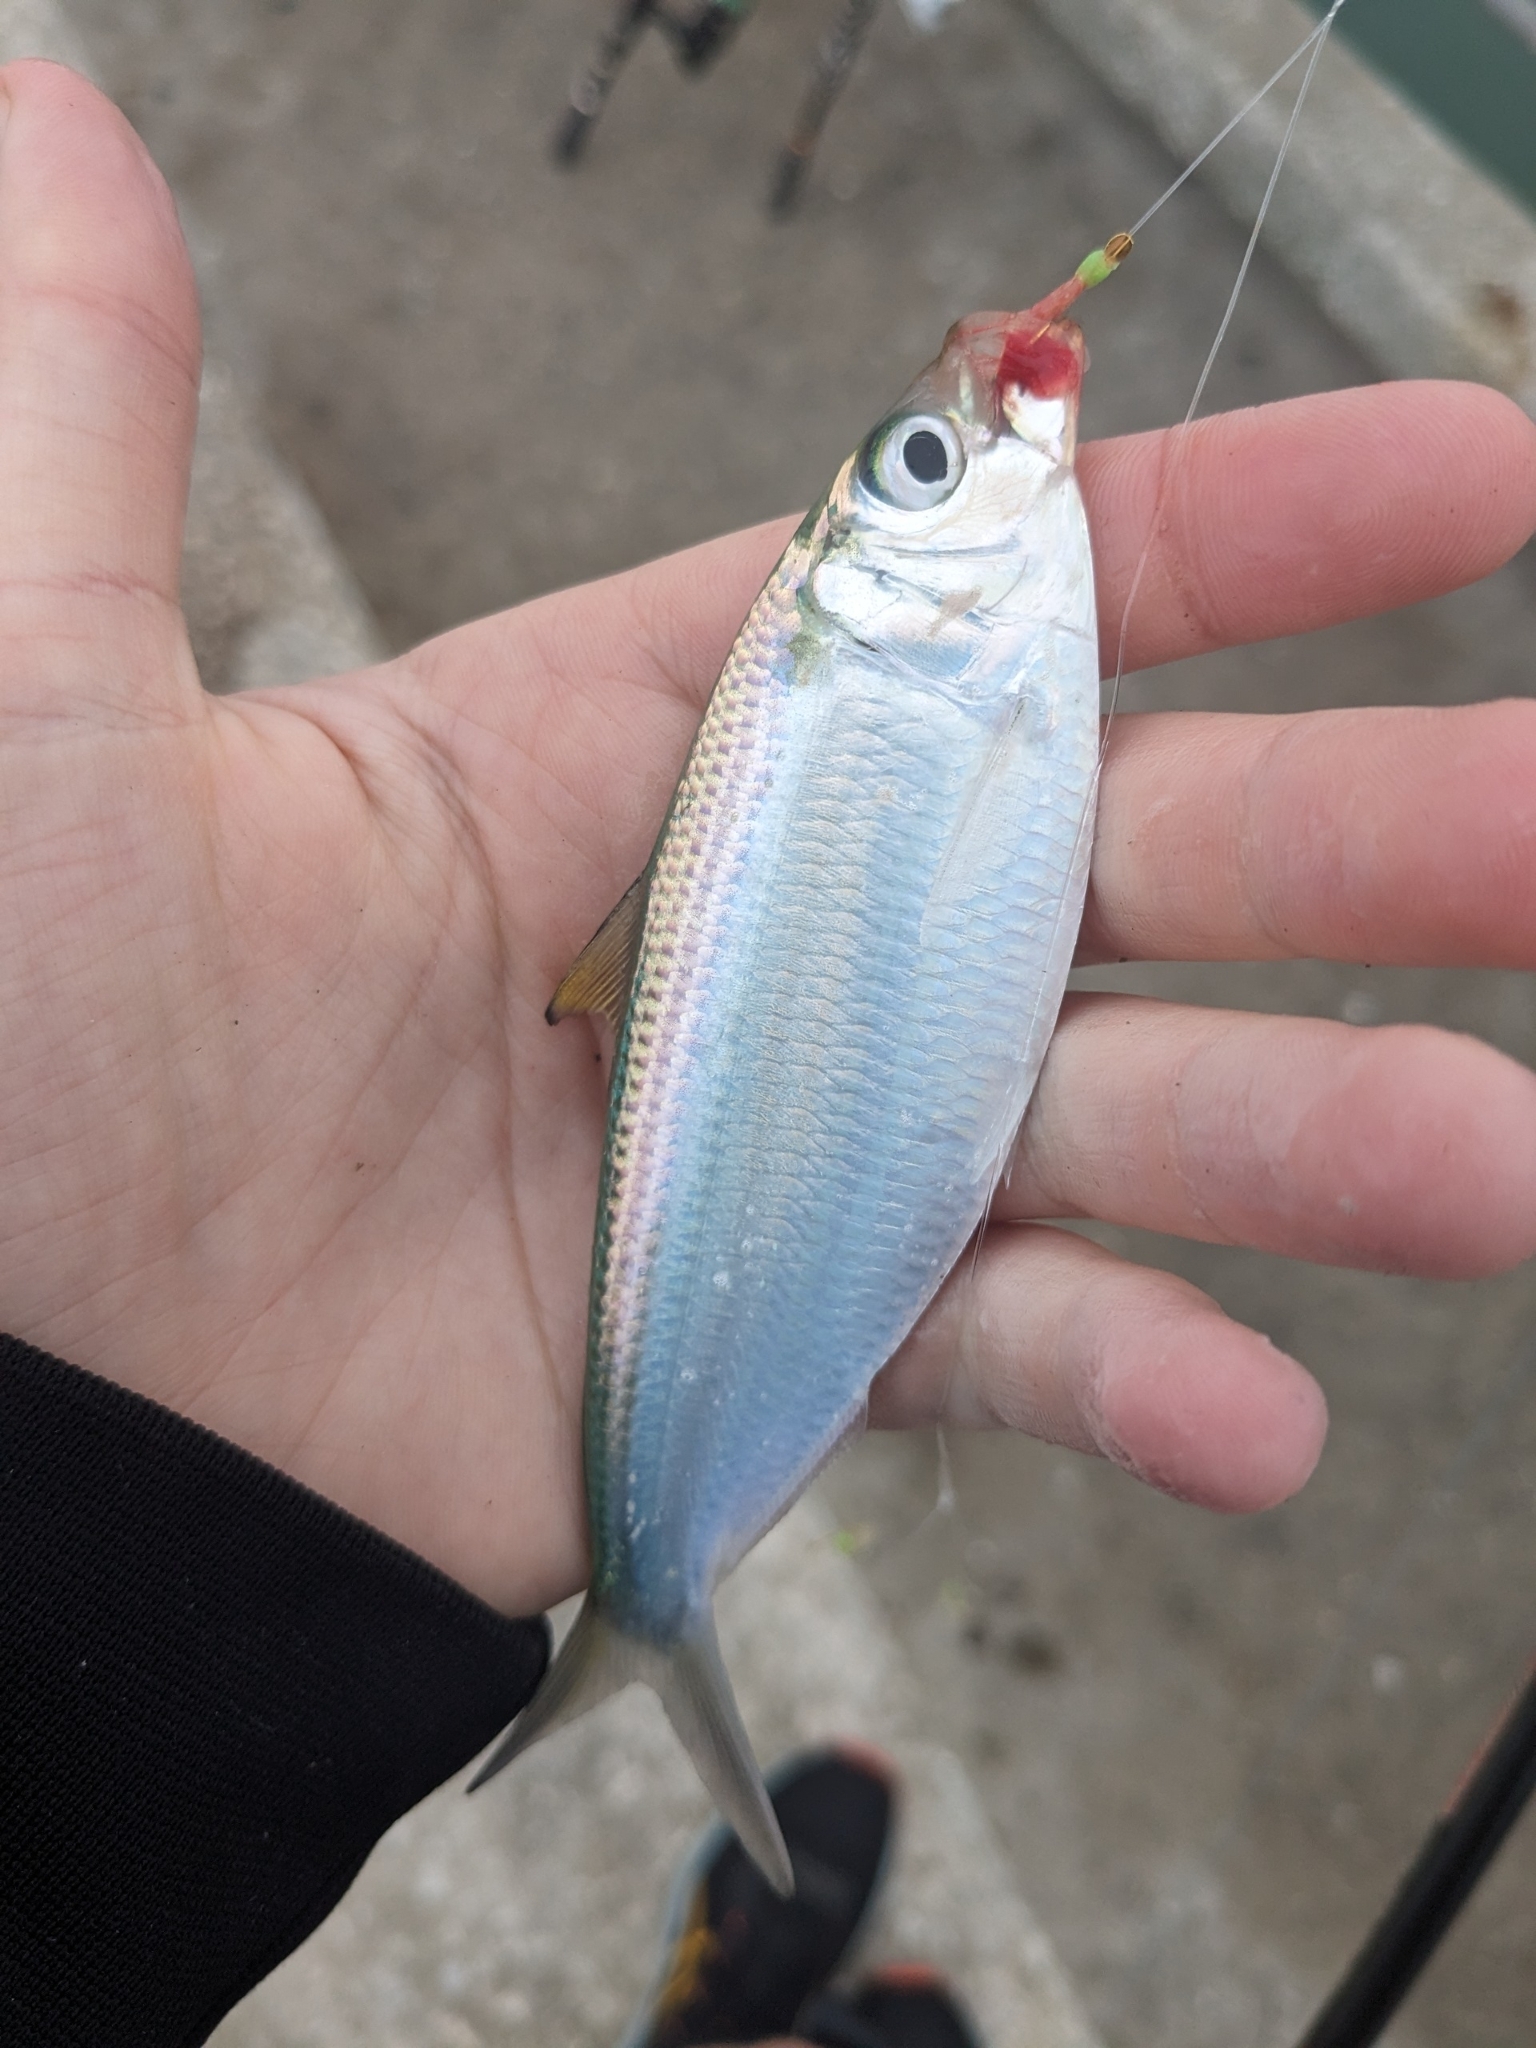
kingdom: Animalia
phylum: Chordata
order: Clupeiformes
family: Clupeidae
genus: Opisthonema
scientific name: Opisthonema oglinum
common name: Thread herring
